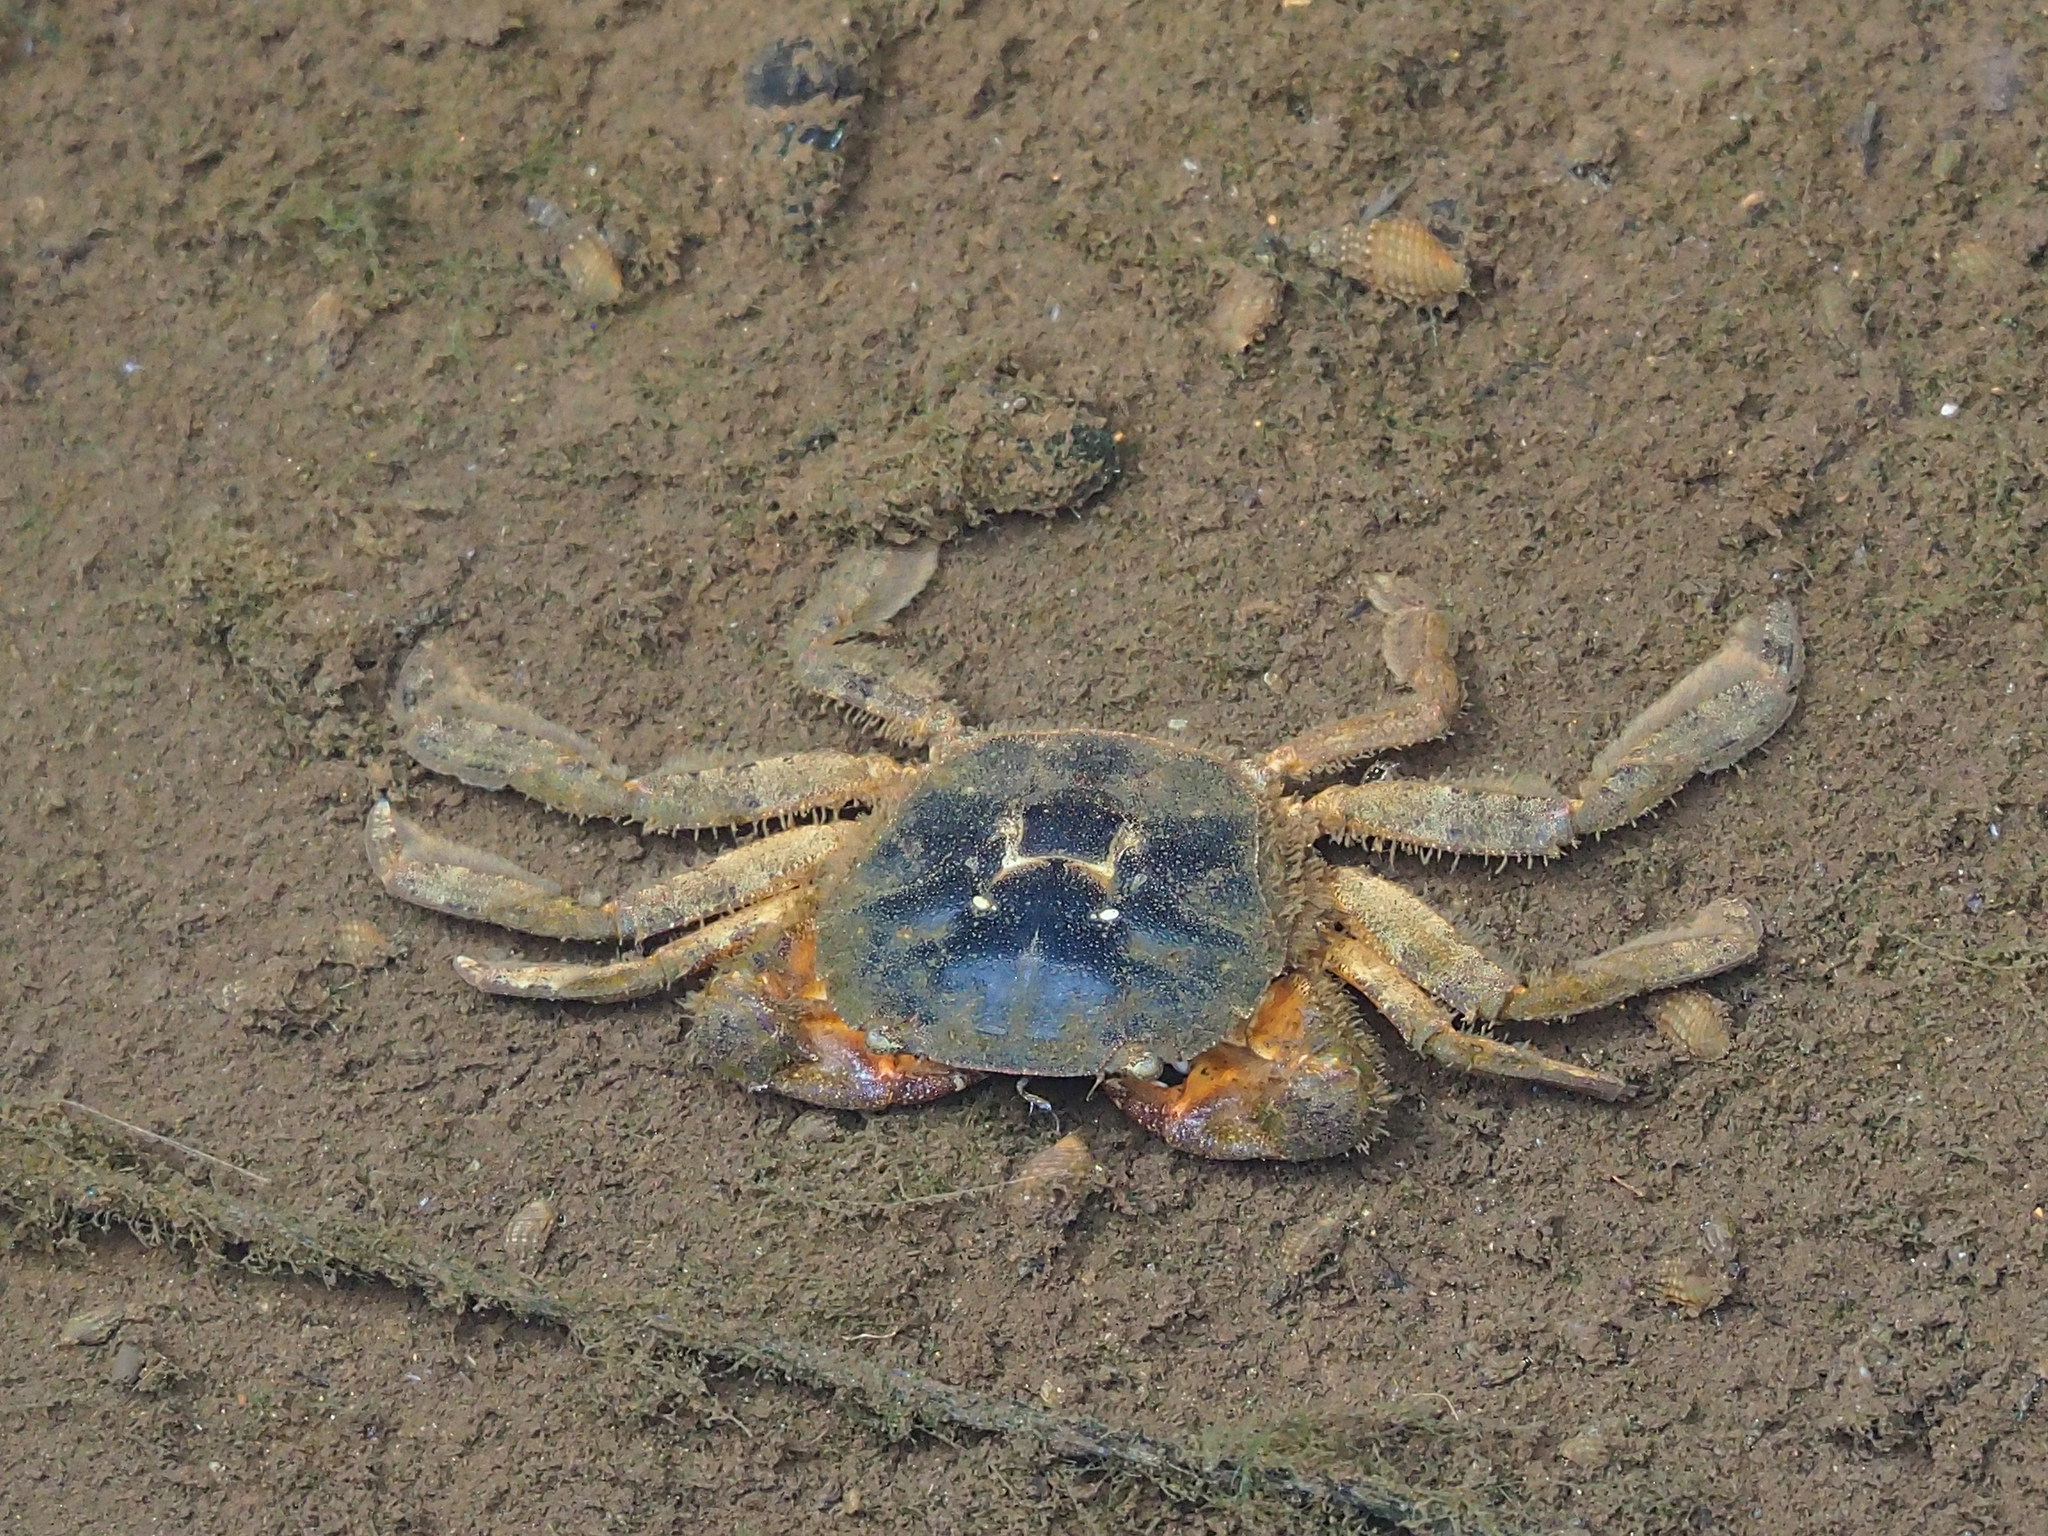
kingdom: Animalia
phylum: Arthropoda
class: Malacostraca
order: Decapoda
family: Varunidae
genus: Varuna
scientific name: Varuna litterata
